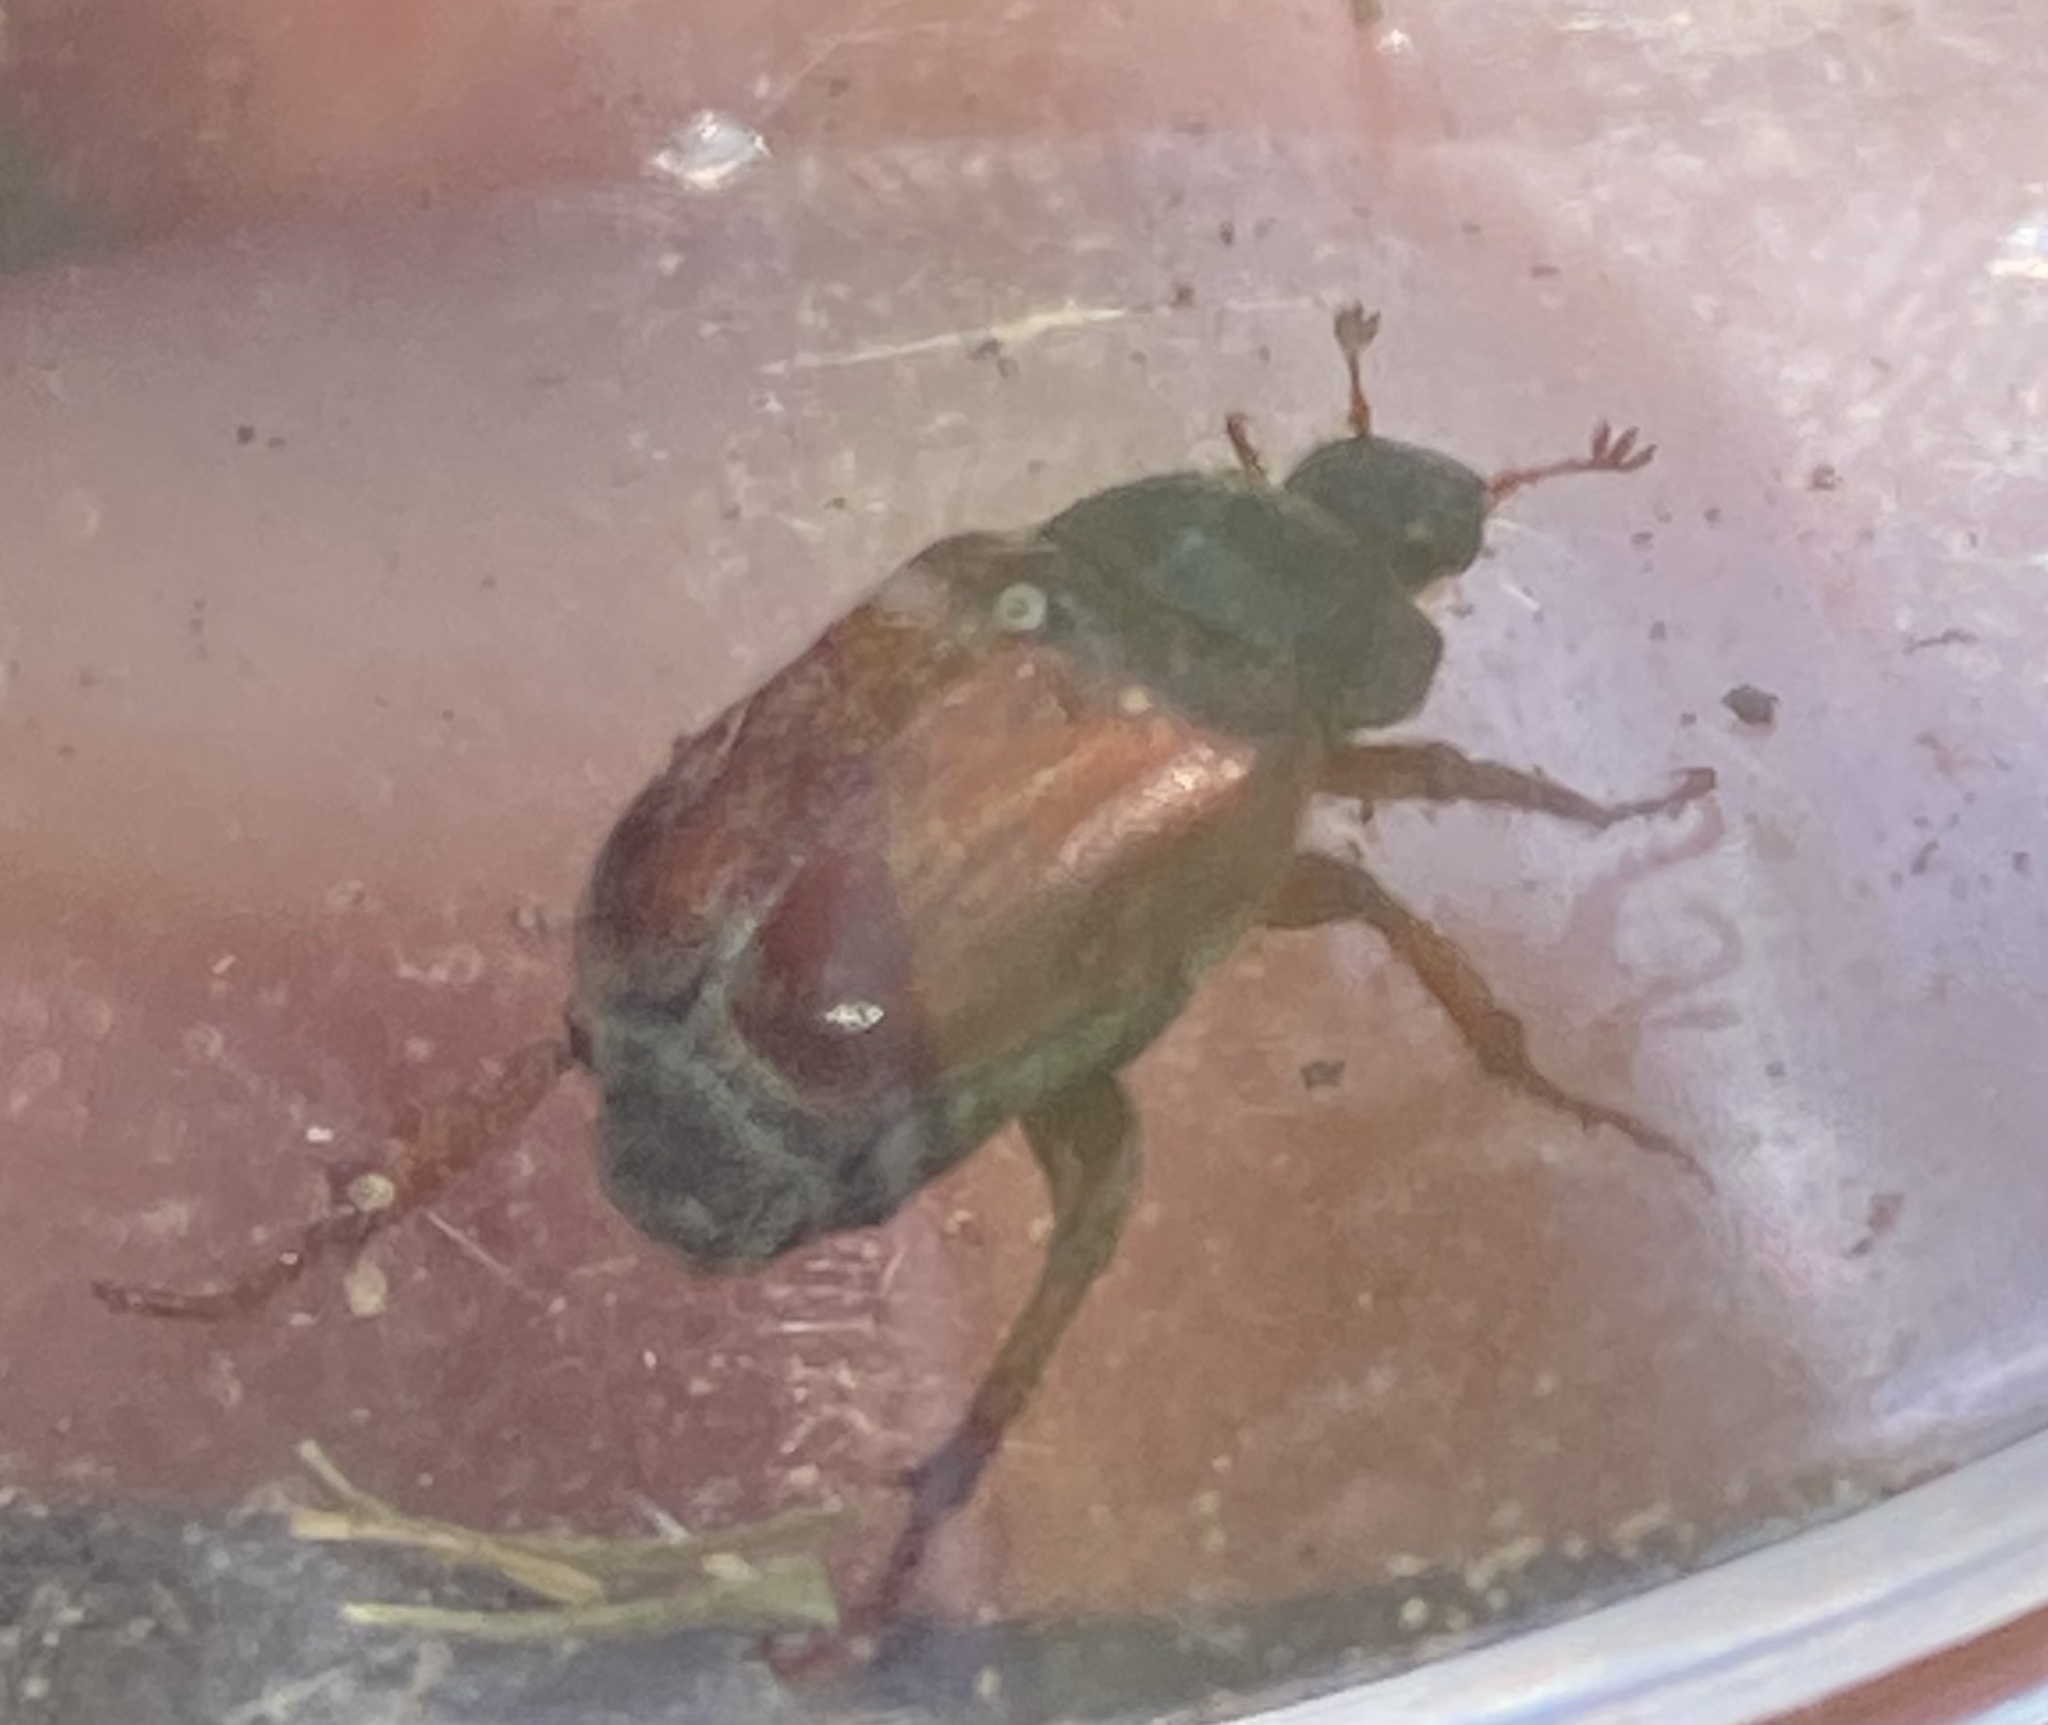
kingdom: Animalia
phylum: Arthropoda
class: Insecta
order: Coleoptera
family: Scarabaeidae
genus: Hoplia
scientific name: Hoplia philanthus
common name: Welsh chafer
